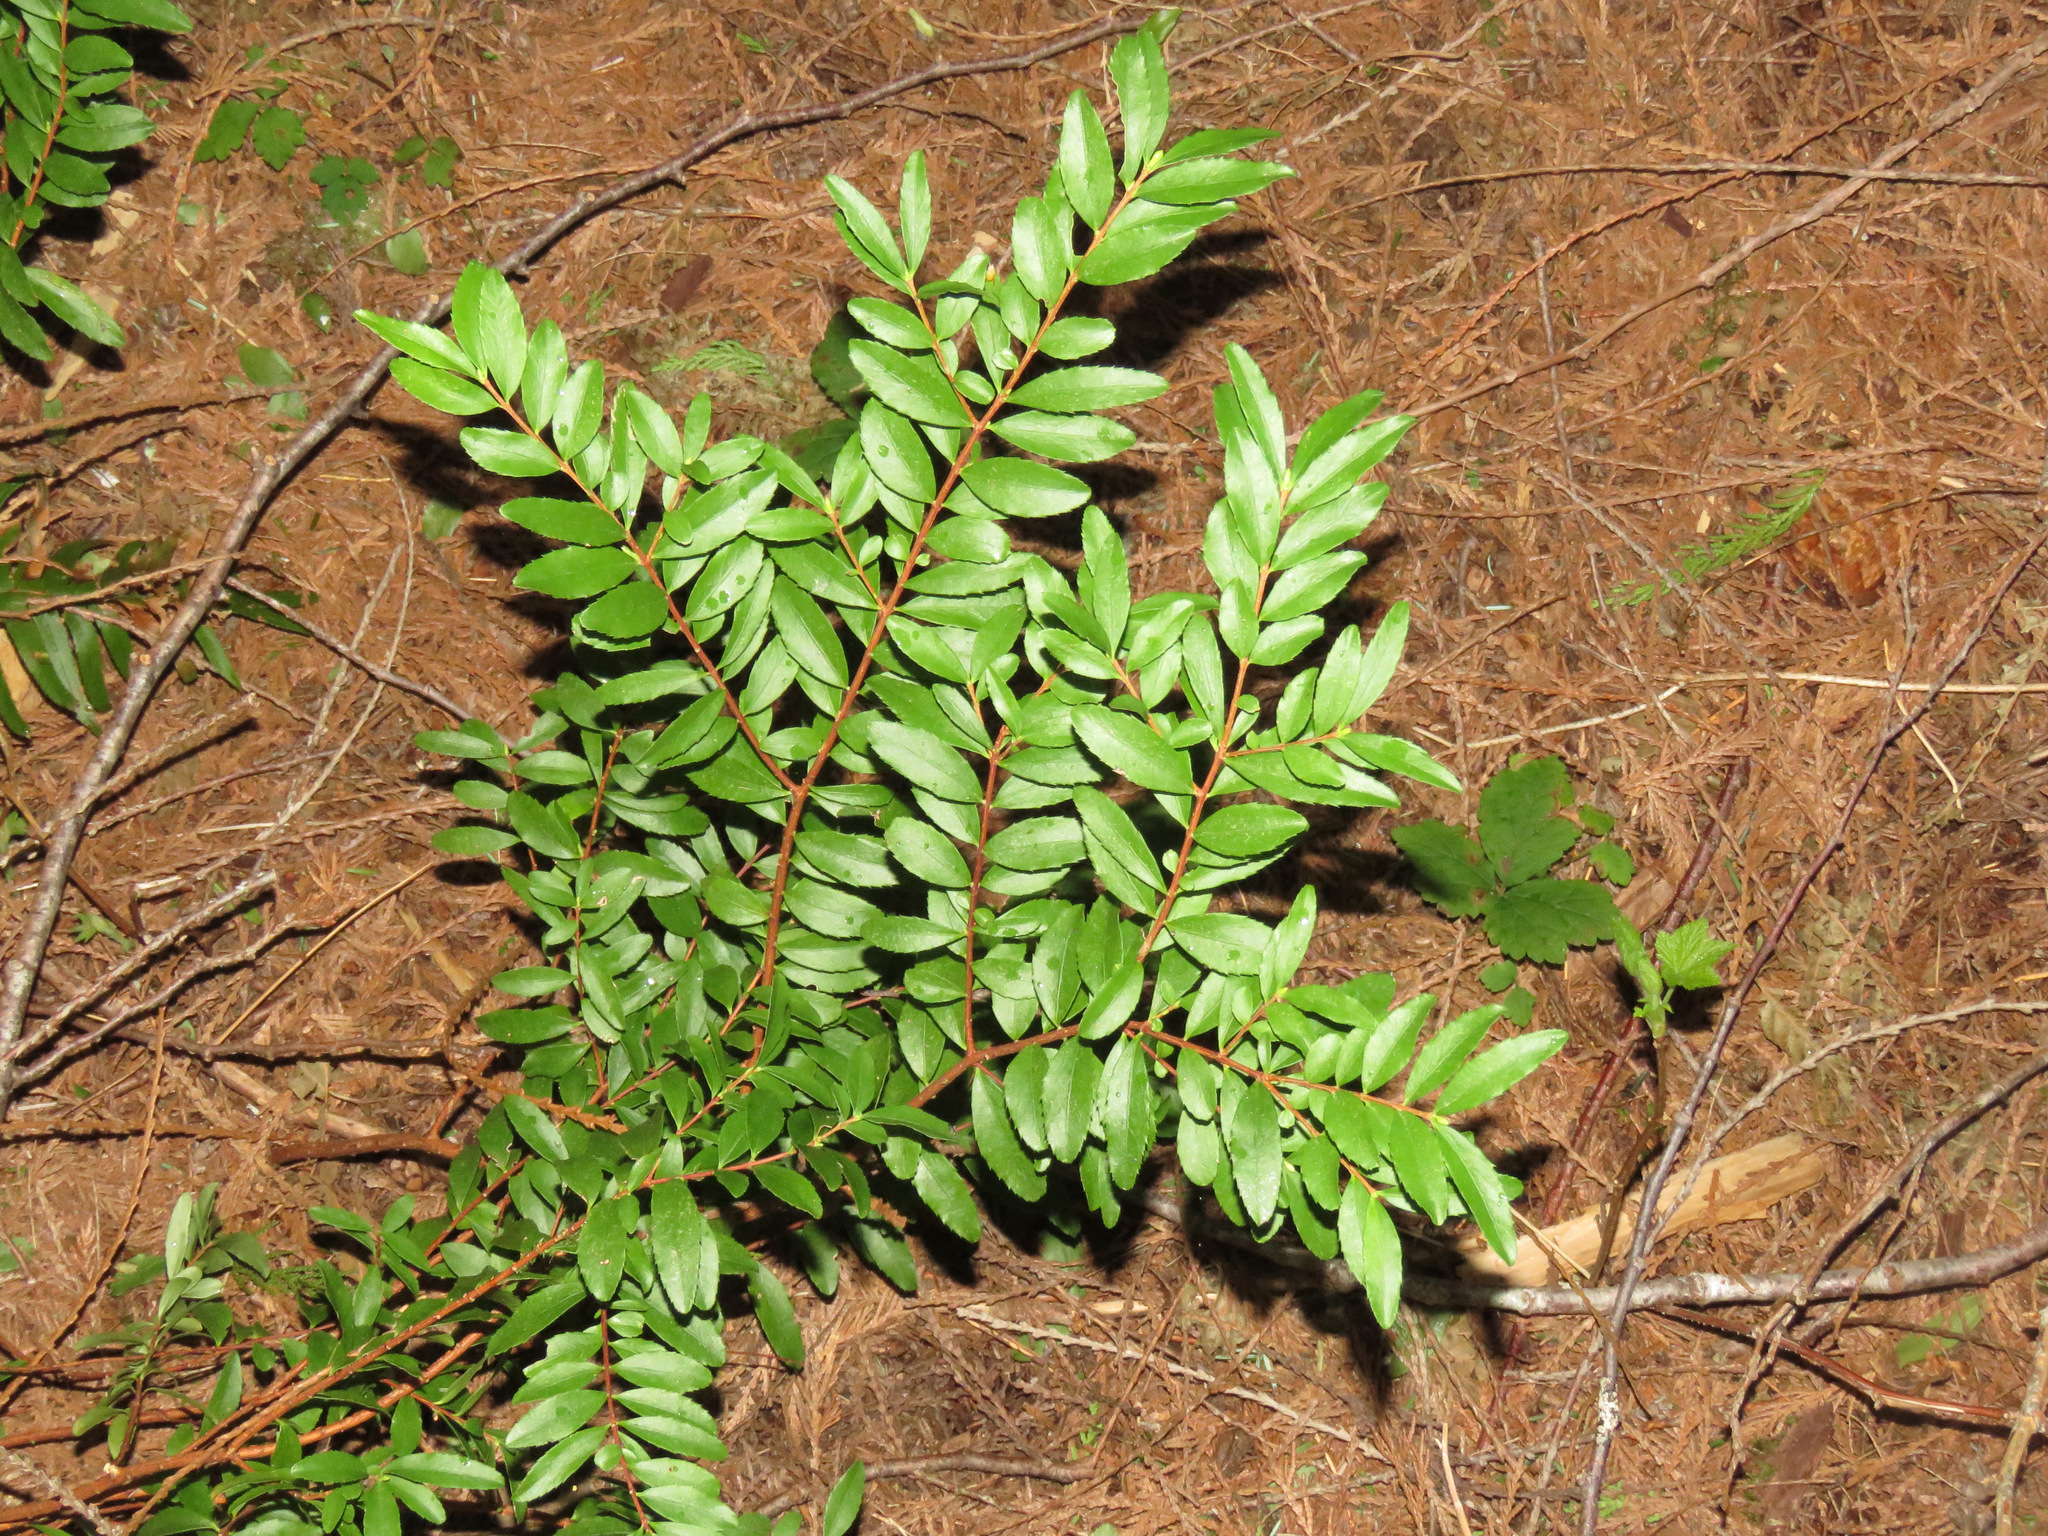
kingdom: Plantae
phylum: Tracheophyta
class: Magnoliopsida
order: Celastrales
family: Celastraceae
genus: Paxistima
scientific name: Paxistima myrsinites
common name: Mountain-lover
